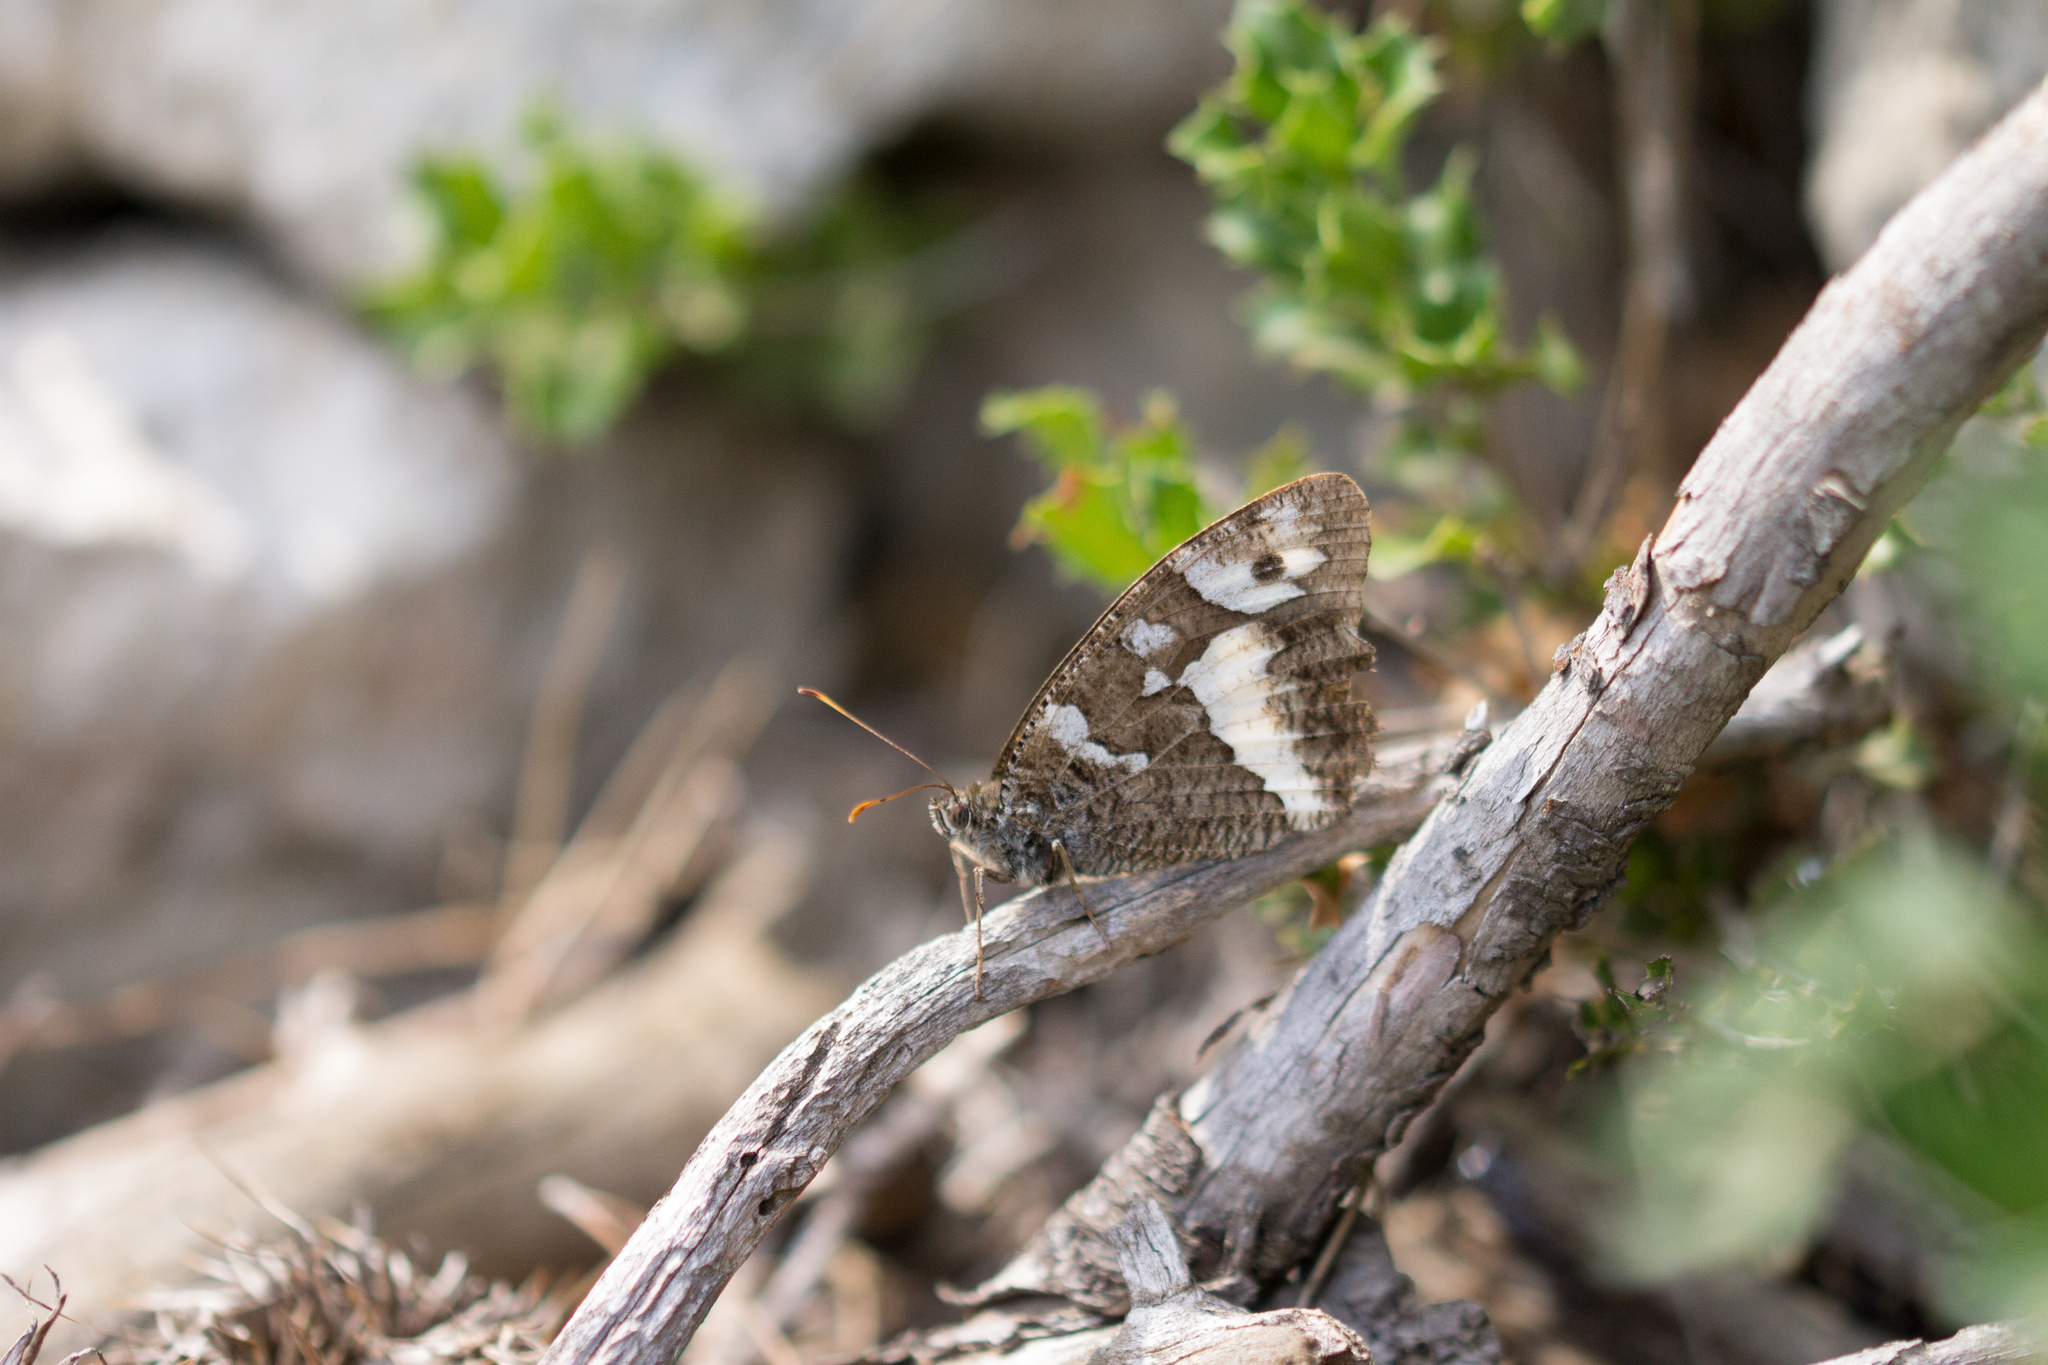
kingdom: Animalia
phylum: Arthropoda
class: Insecta
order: Lepidoptera
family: Lycaenidae
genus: Loweia
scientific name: Loweia tityrus
